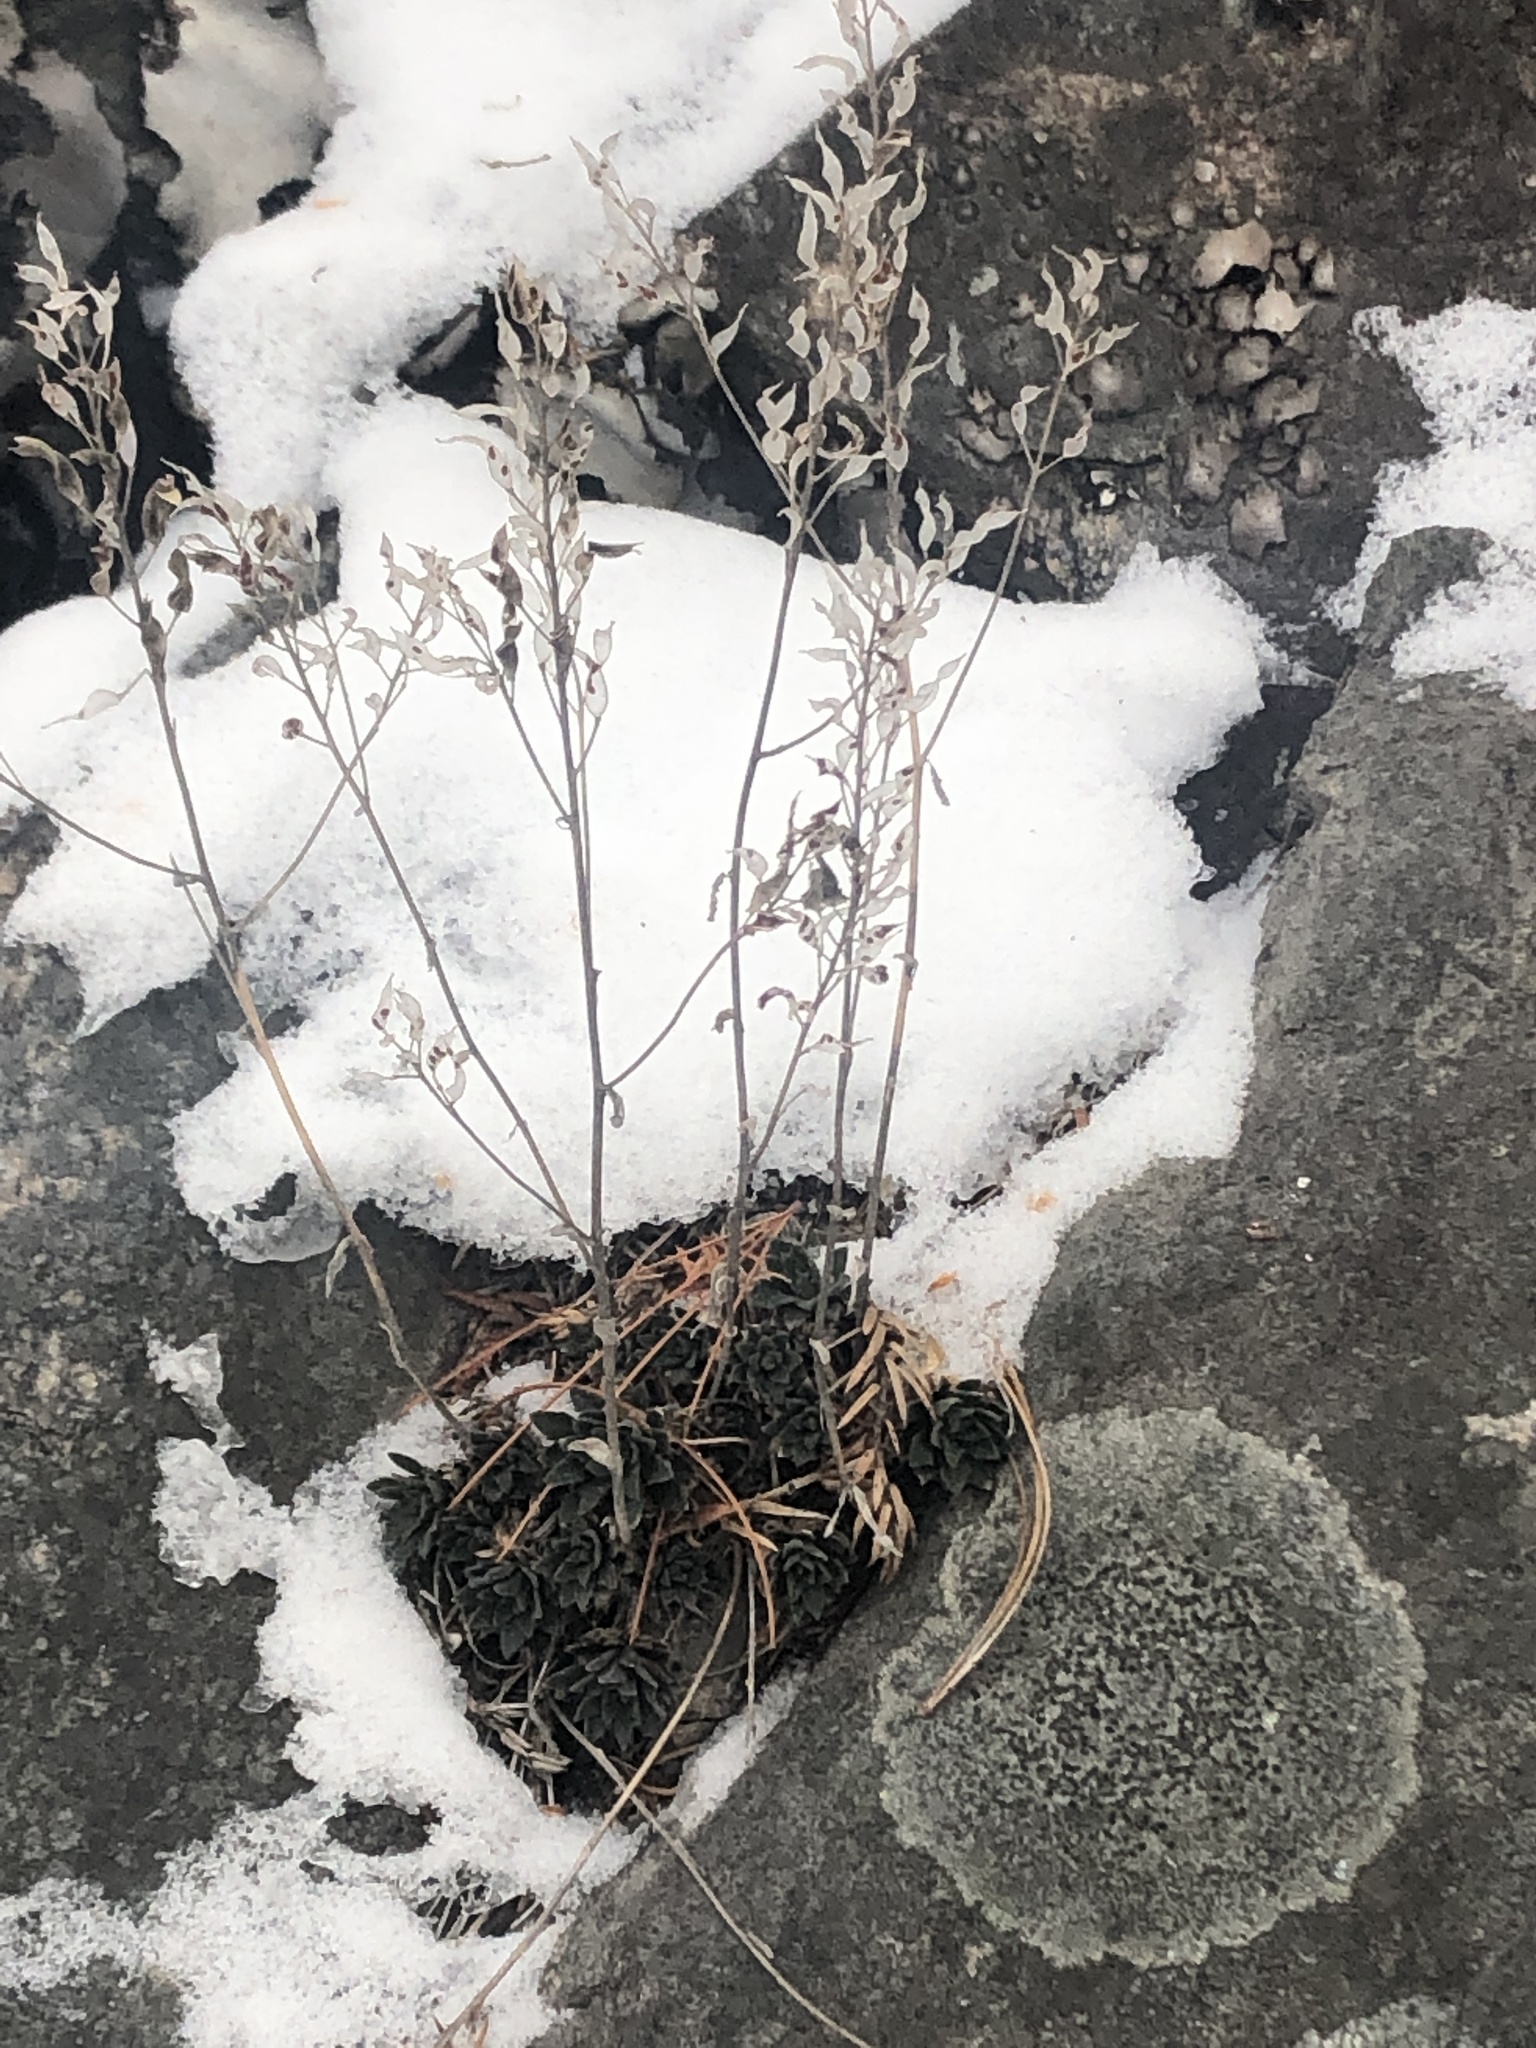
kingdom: Plantae
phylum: Tracheophyta
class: Magnoliopsida
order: Brassicales
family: Brassicaceae
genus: Draba
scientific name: Draba arabisans
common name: Rock draba
